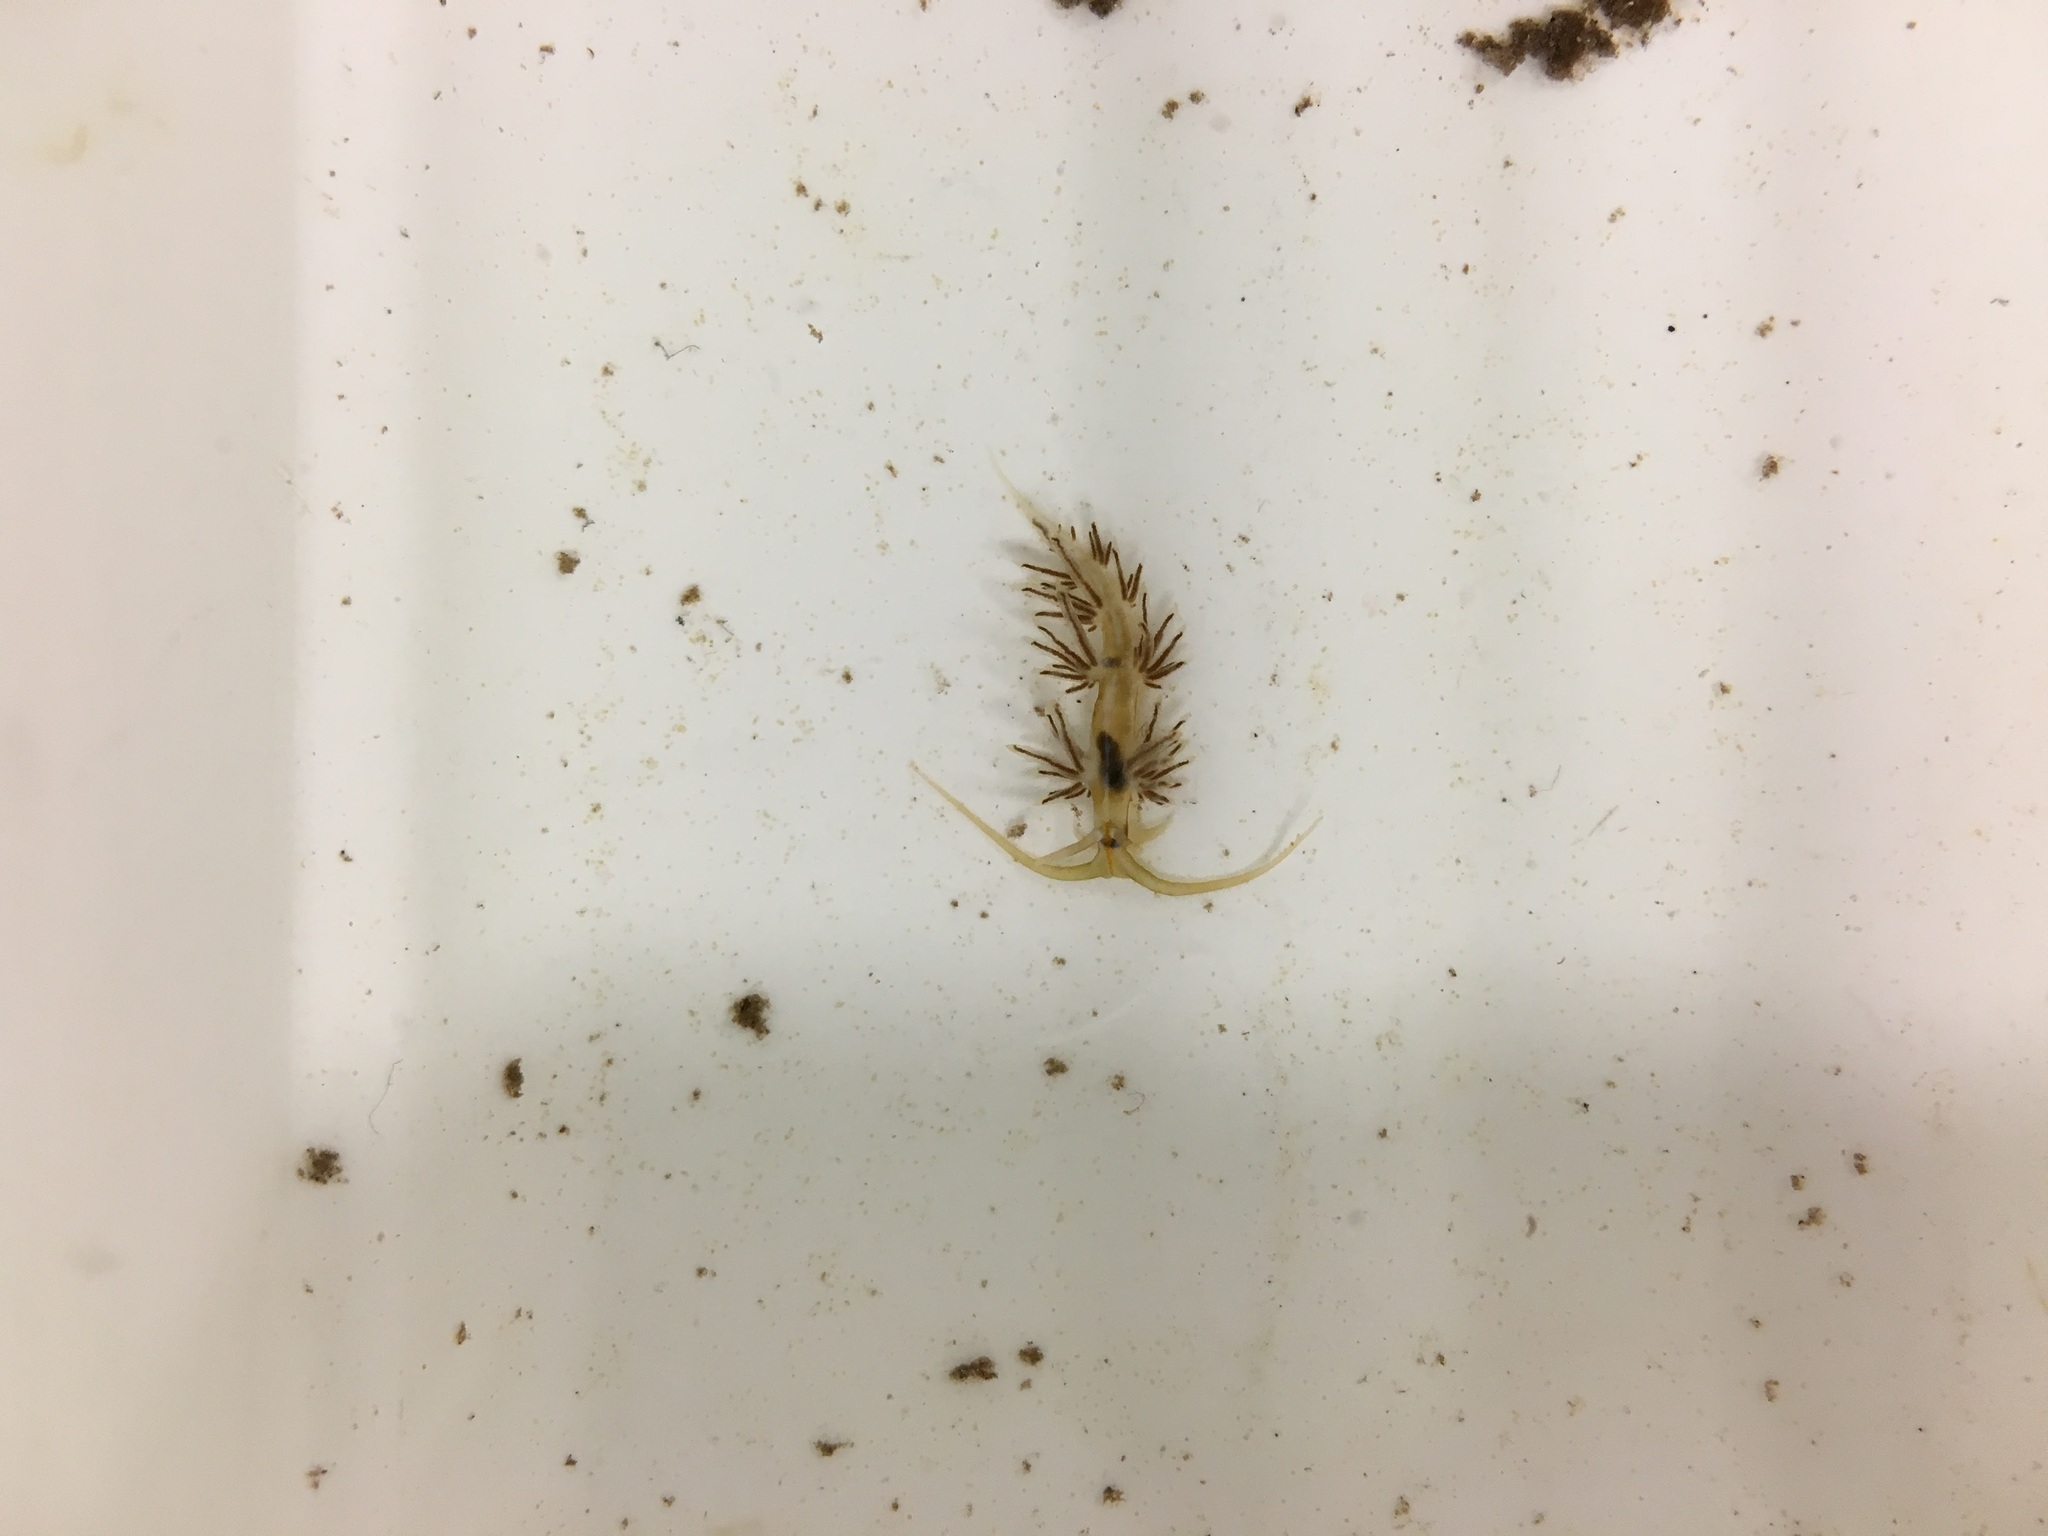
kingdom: Animalia
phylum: Mollusca
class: Gastropoda
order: Nudibranchia
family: Myrrhinidae
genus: Dondice
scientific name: Dondice occidentalis
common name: Fringe-back nudibranch
